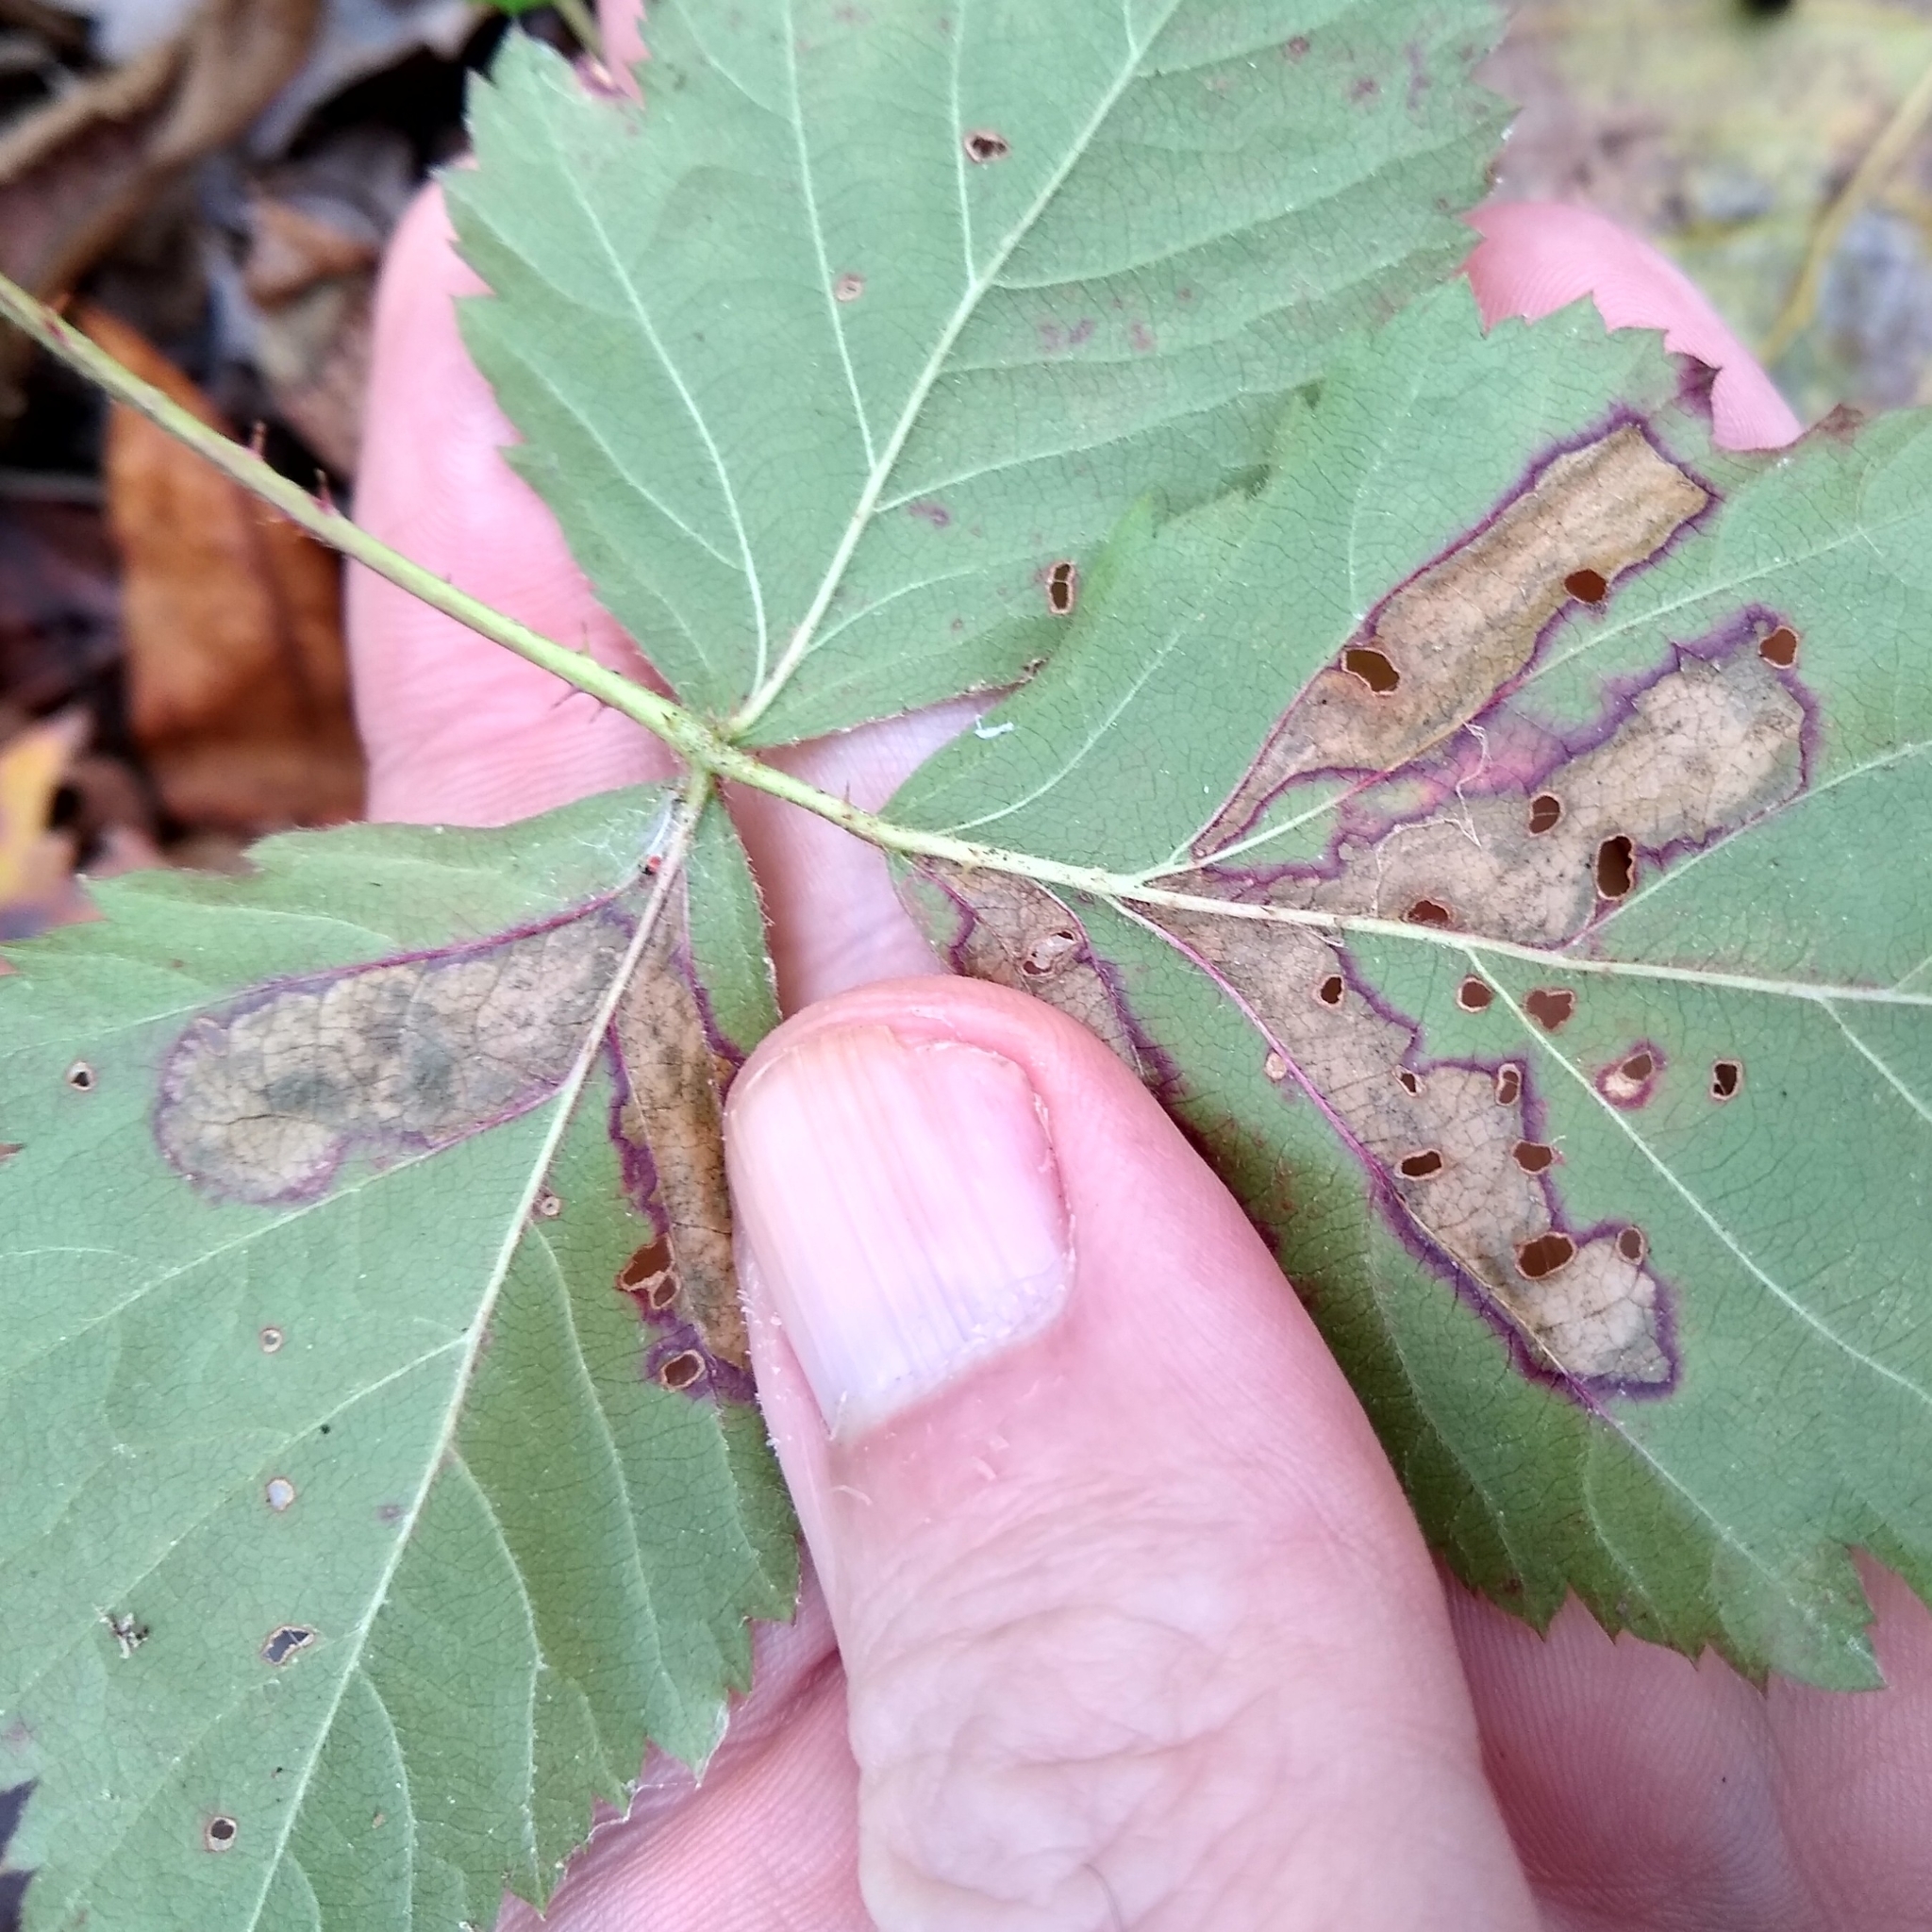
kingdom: Animalia
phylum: Arthropoda
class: Insecta
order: Lepidoptera
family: Nepticulidae
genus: Ectoedemia
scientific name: Ectoedemia rubifoliella
